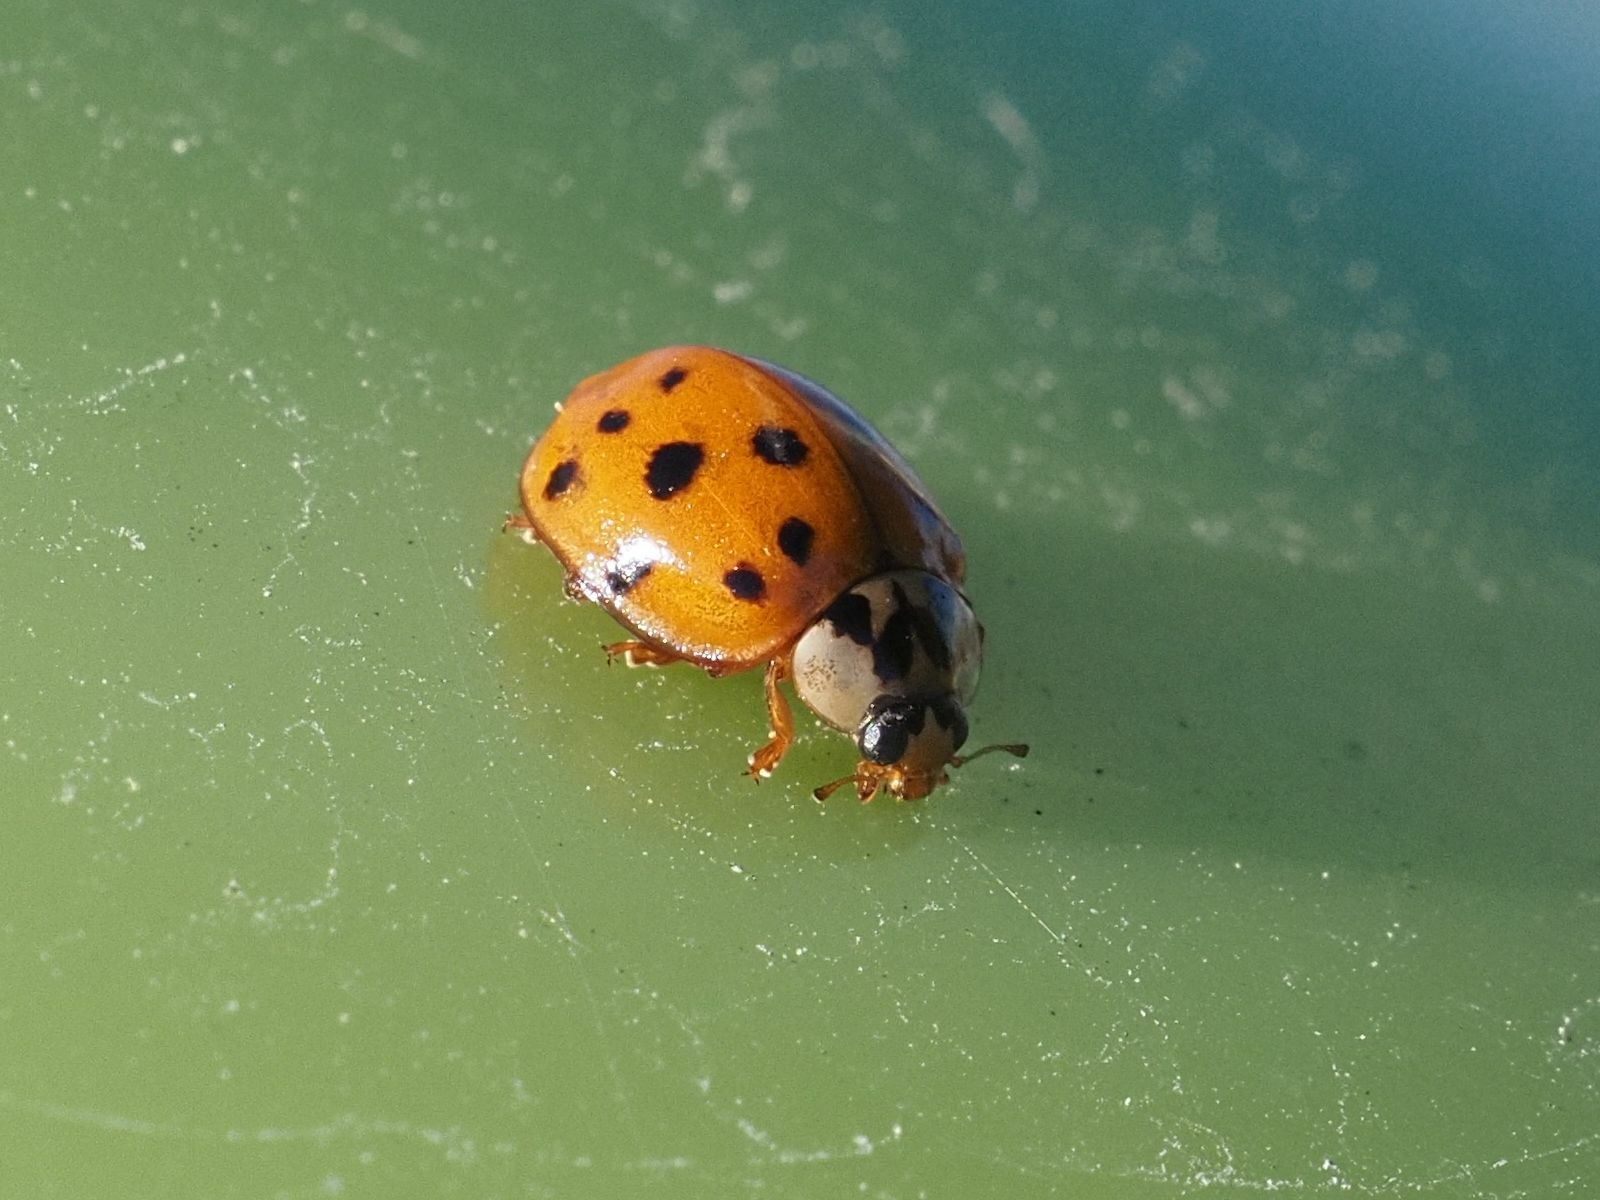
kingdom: Animalia
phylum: Arthropoda
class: Insecta
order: Coleoptera
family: Coccinellidae
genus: Harmonia
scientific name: Harmonia axyridis
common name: Harlequin ladybird
